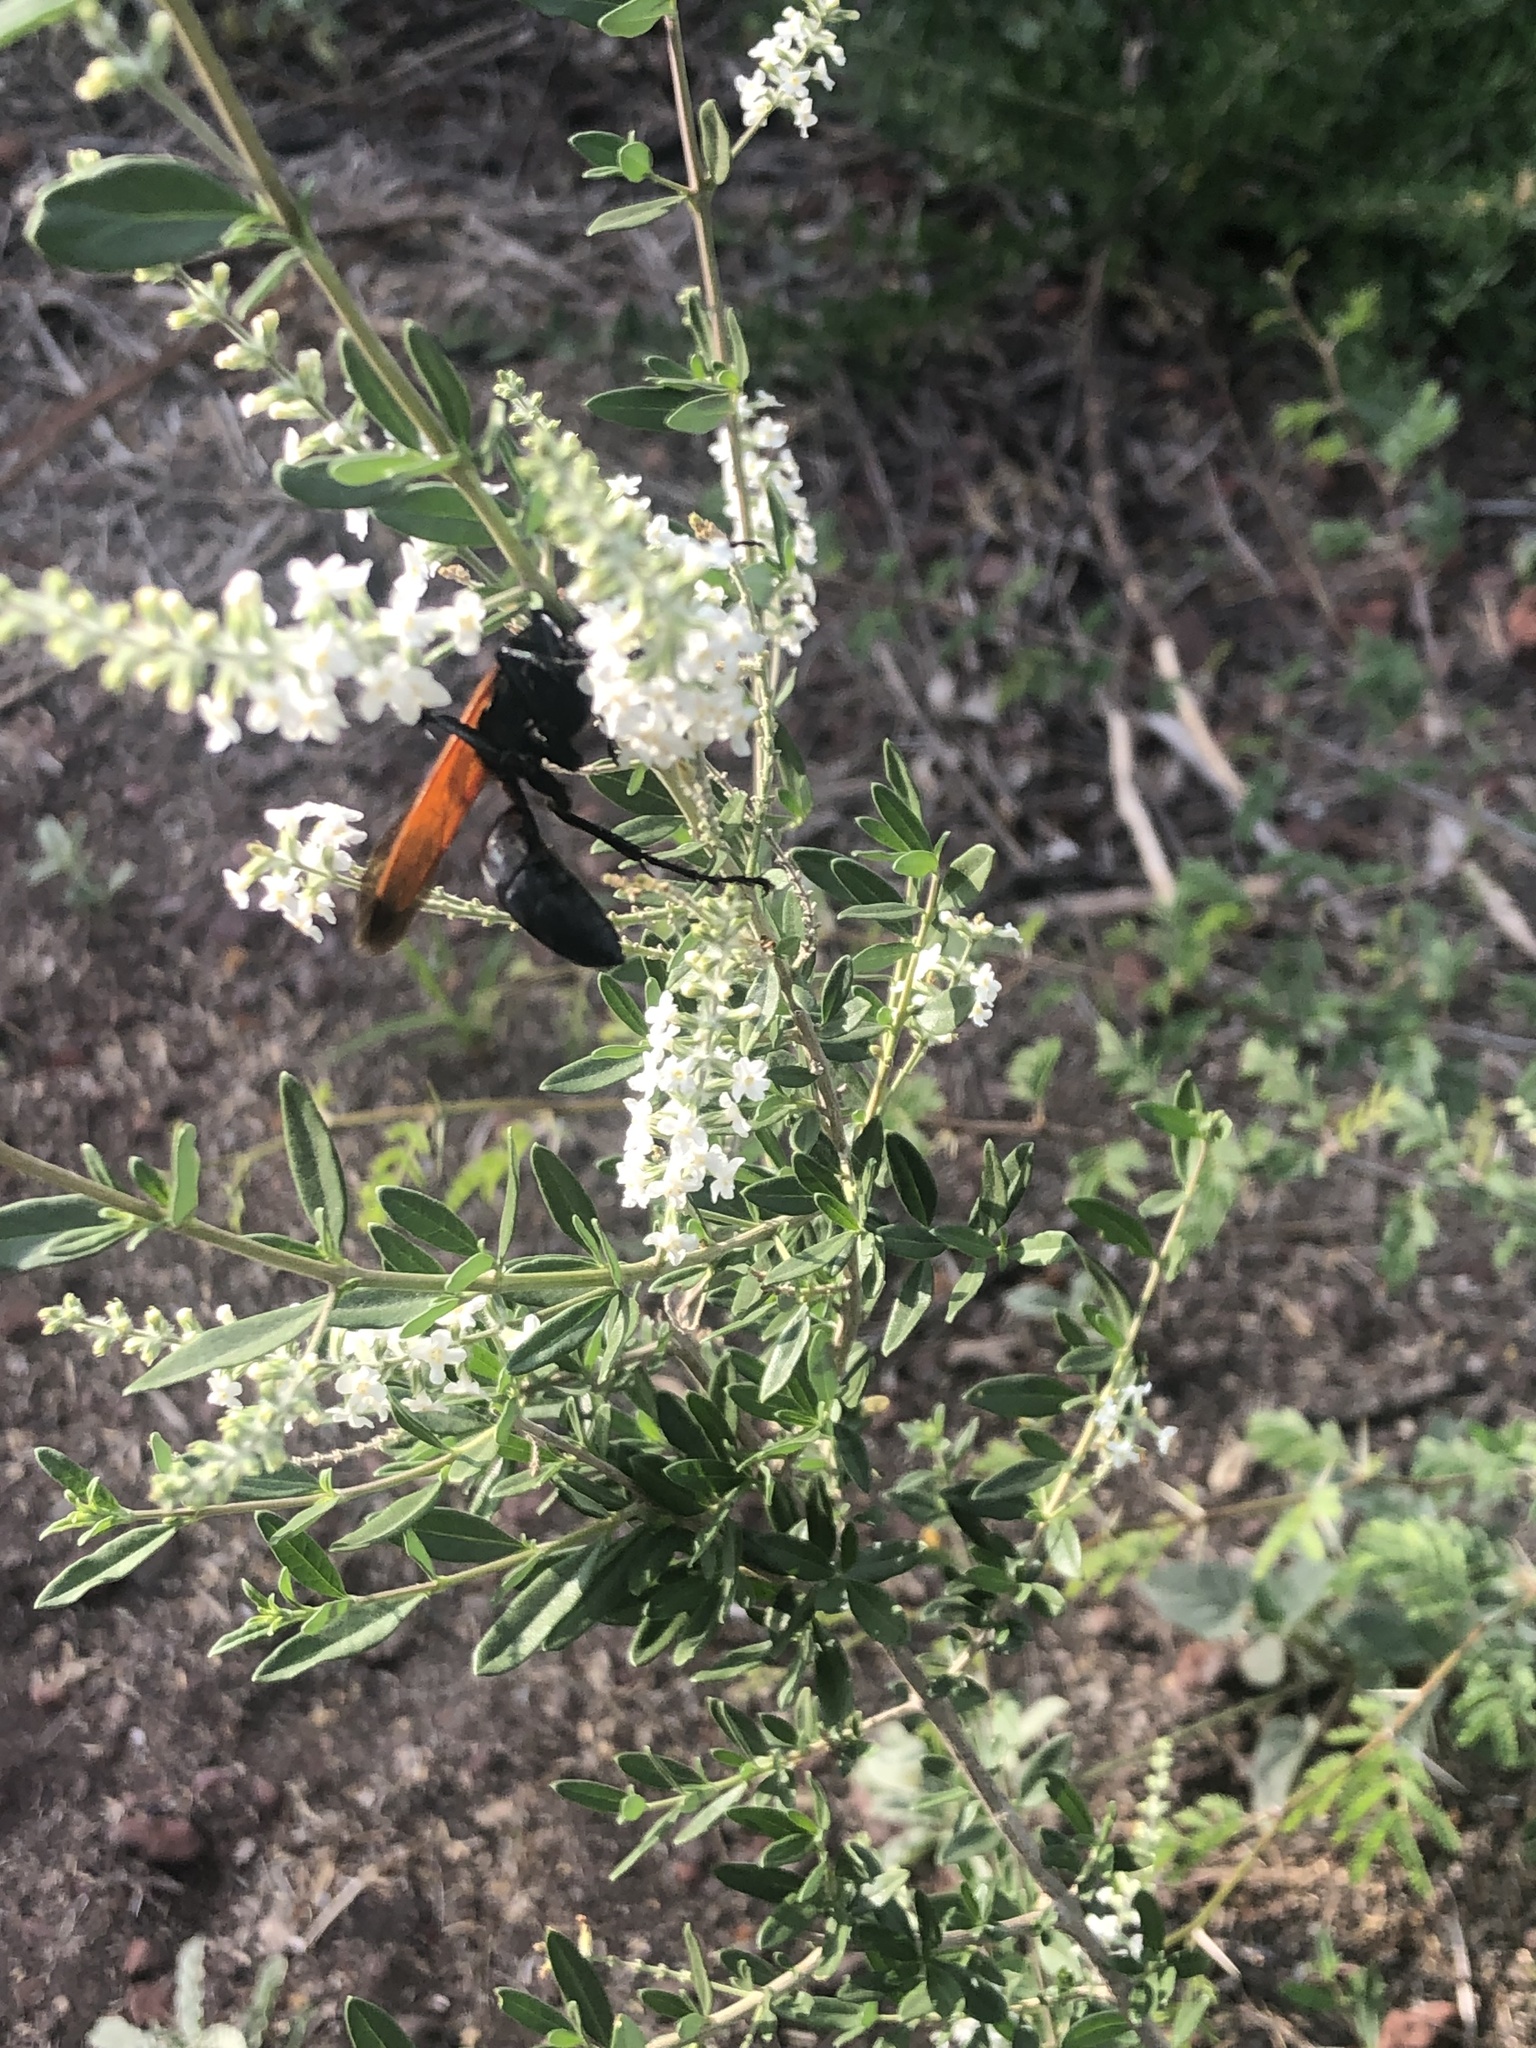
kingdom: Animalia
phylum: Arthropoda
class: Insecta
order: Hymenoptera
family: Sphecidae
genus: Sphex
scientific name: Sphex tepanecus
